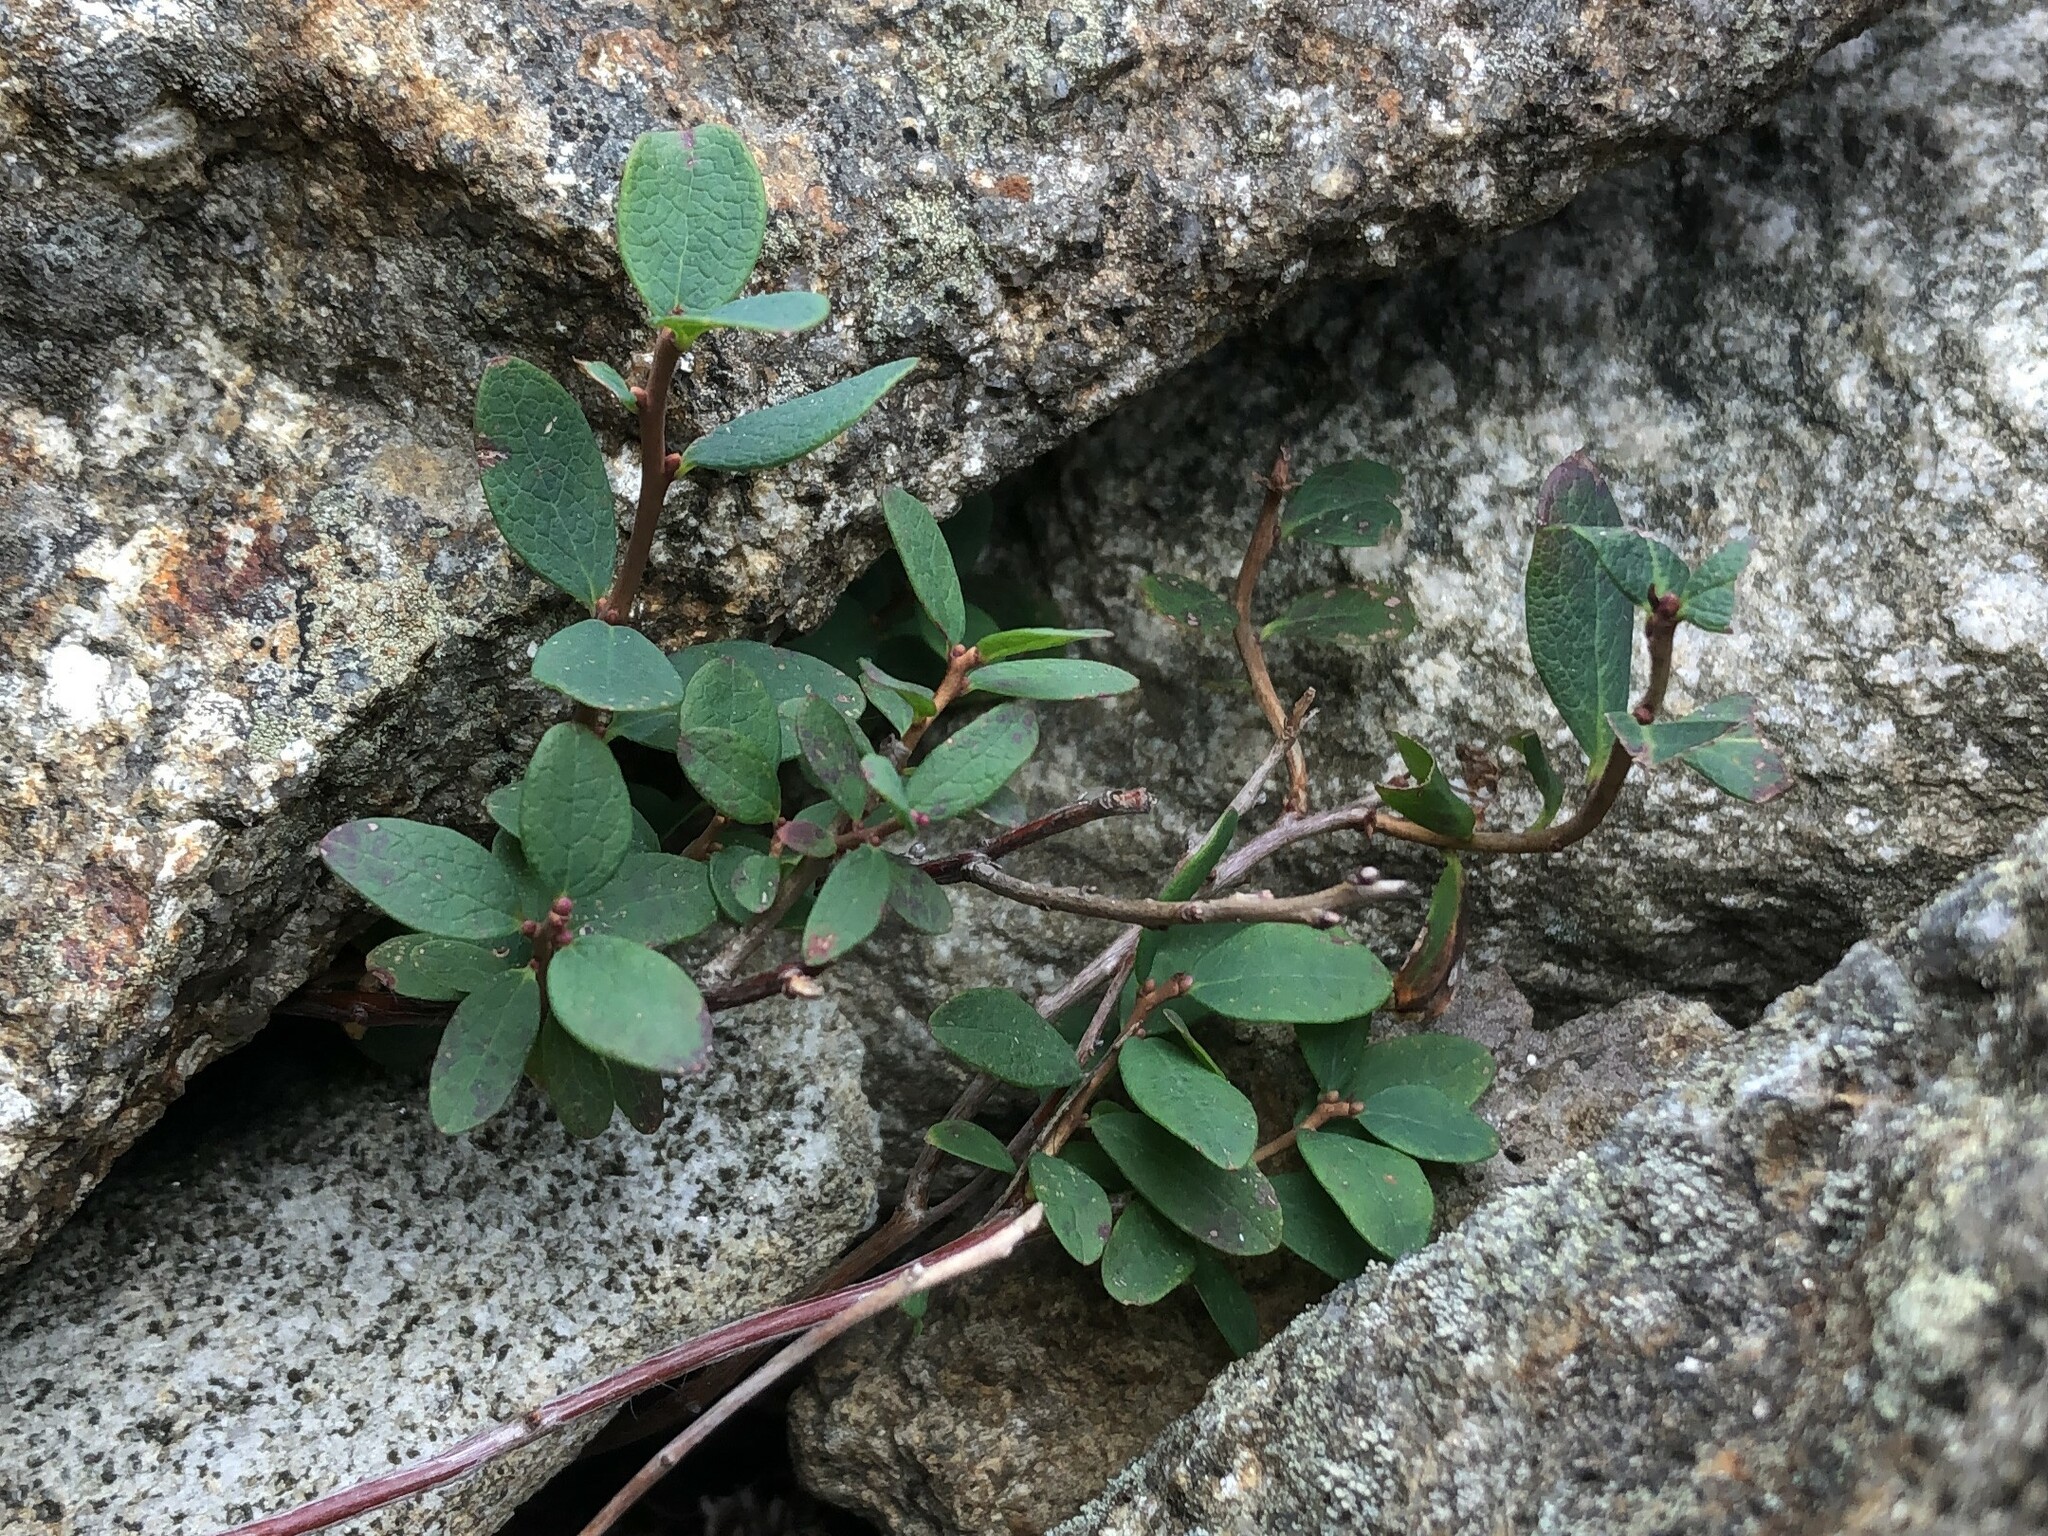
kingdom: Plantae
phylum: Tracheophyta
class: Magnoliopsida
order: Ericales
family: Ericaceae
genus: Vaccinium
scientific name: Vaccinium uliginosum
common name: Bog bilberry
